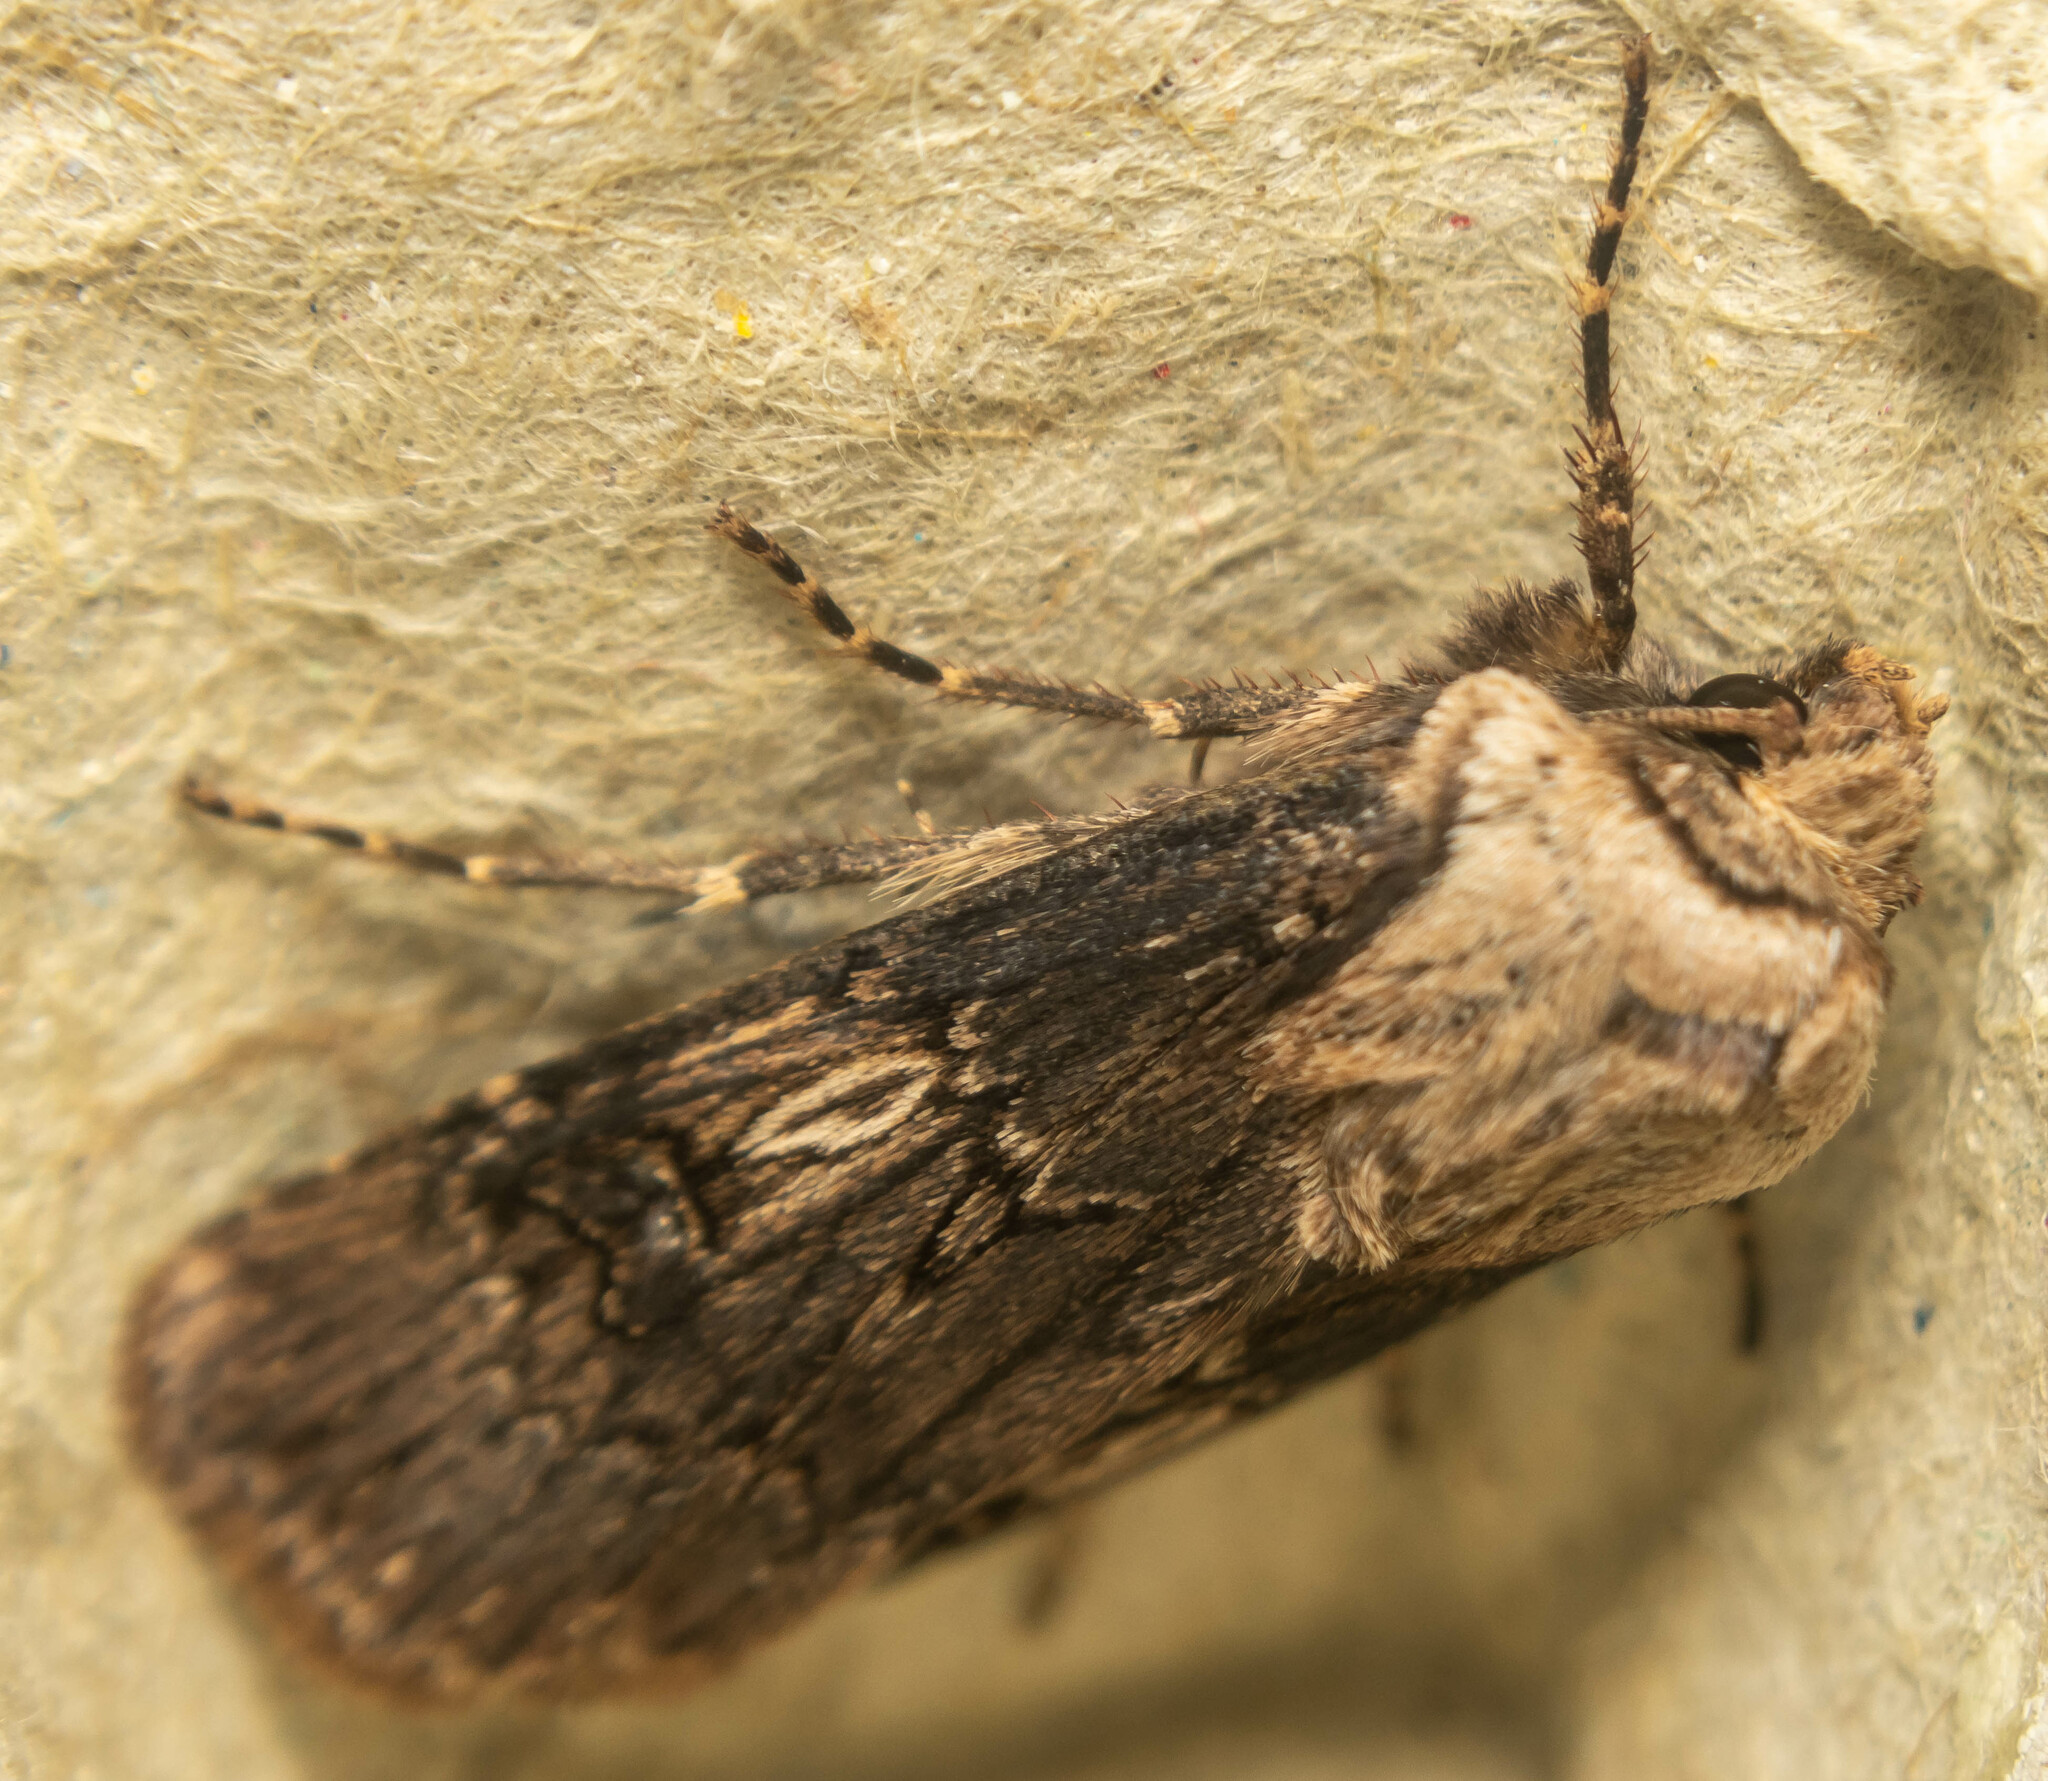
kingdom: Animalia
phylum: Arthropoda
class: Insecta
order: Lepidoptera
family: Noctuidae
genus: Agrotis
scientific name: Agrotis puta
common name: Shuttle-shaped dart
